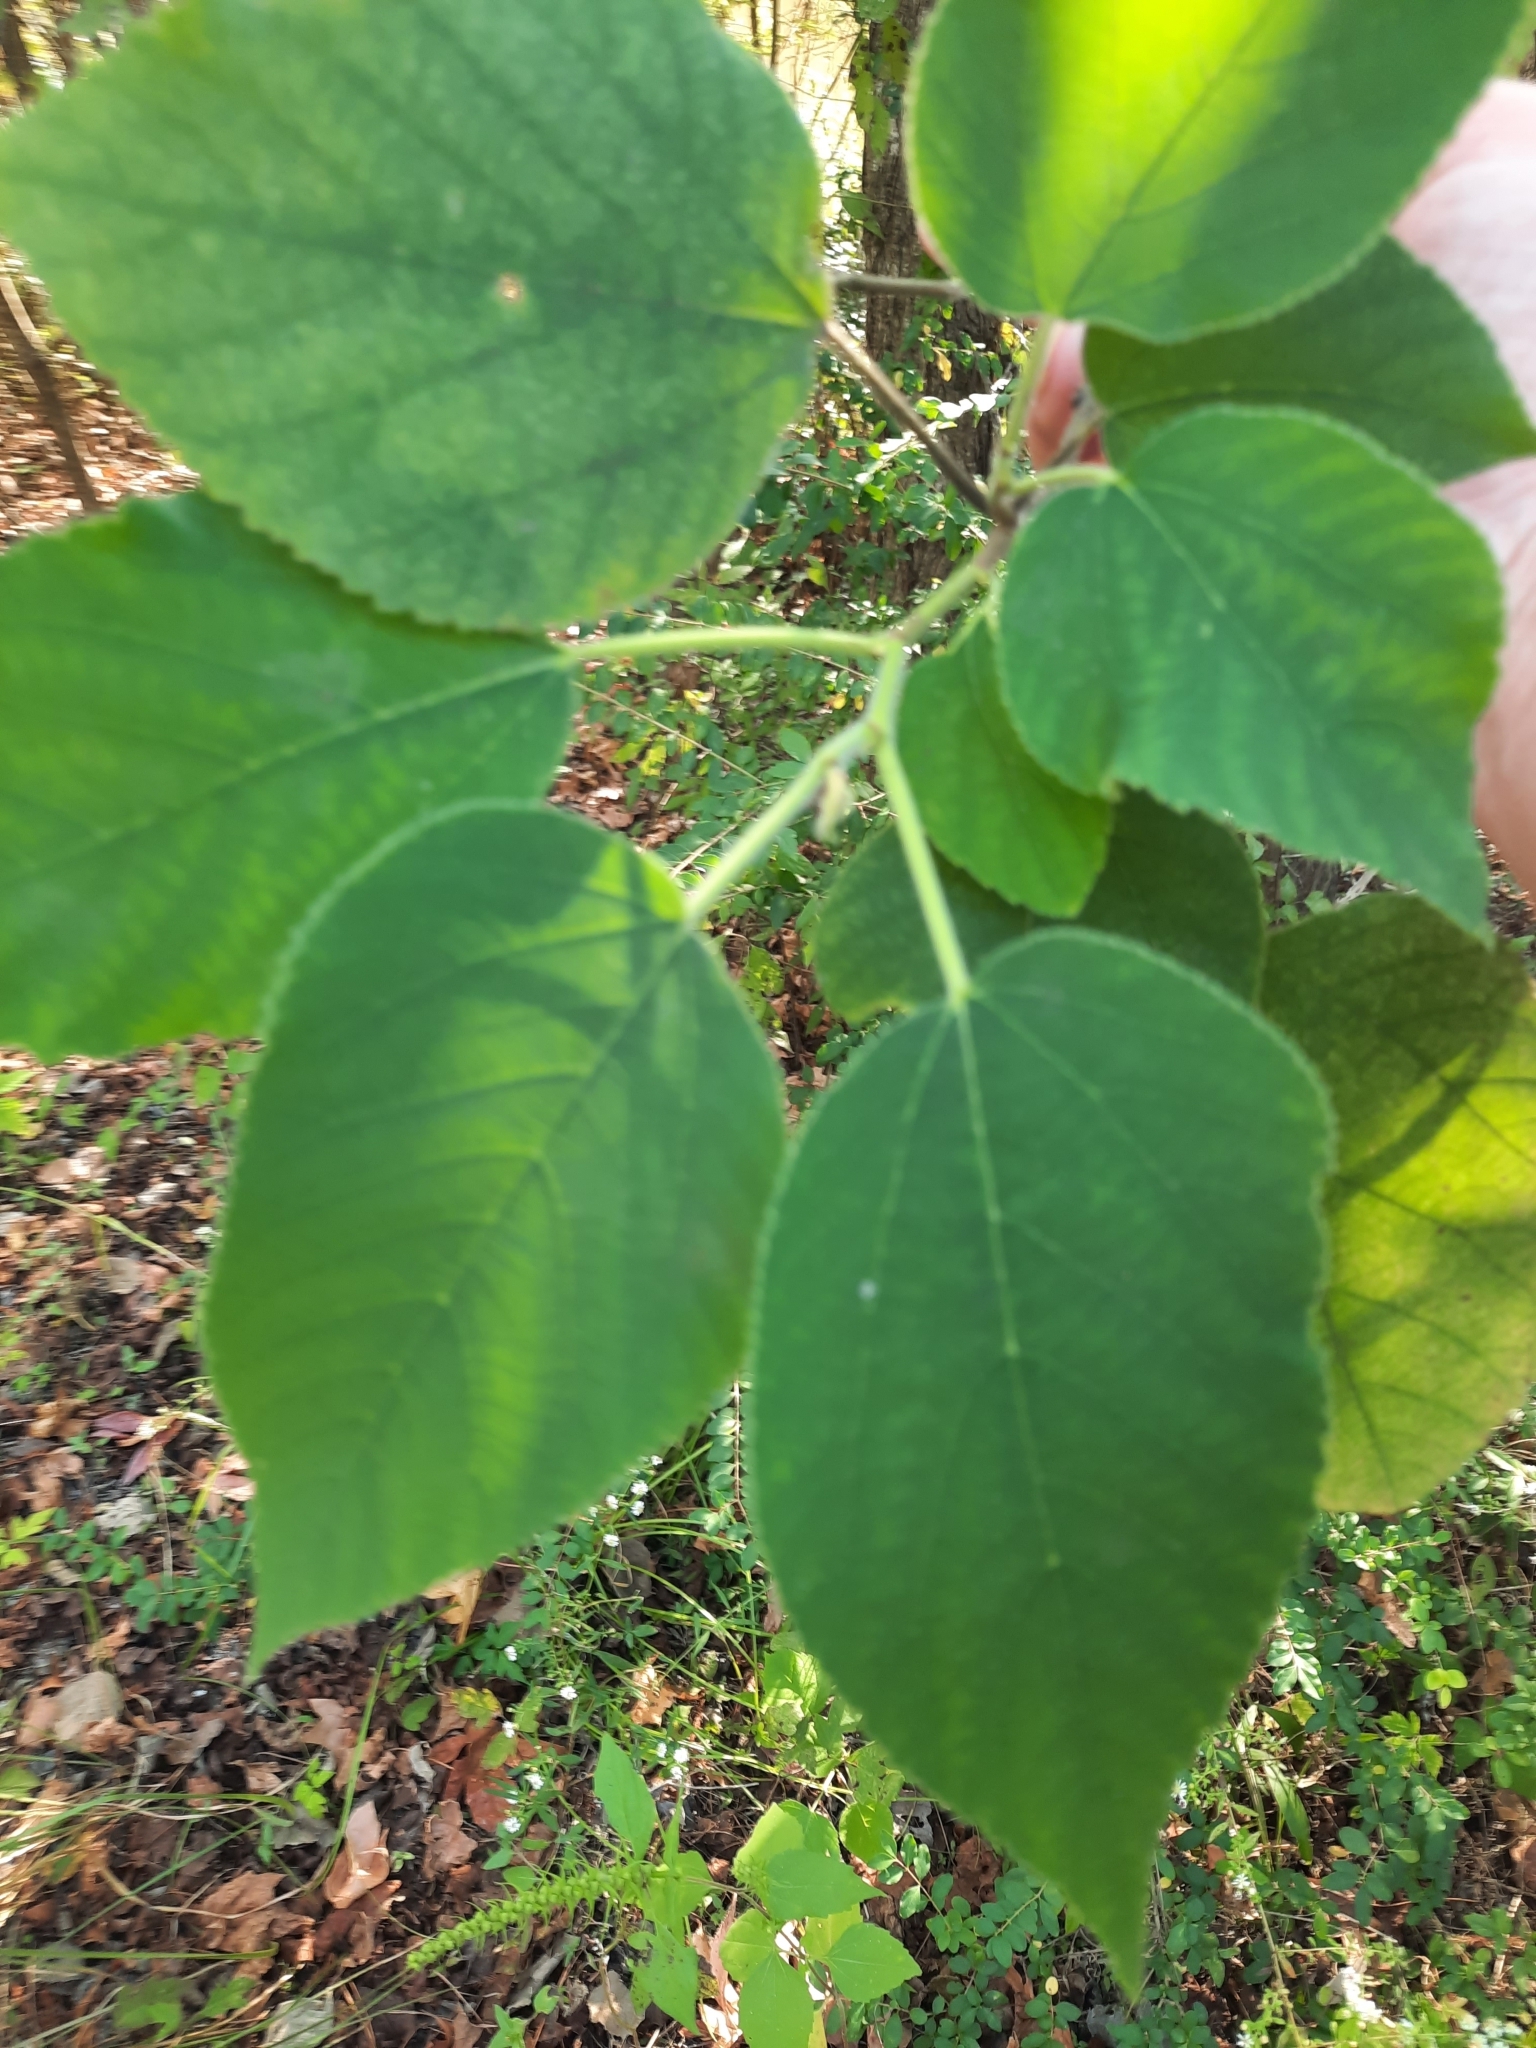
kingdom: Plantae
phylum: Tracheophyta
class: Magnoliopsida
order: Rosales
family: Moraceae
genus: Broussonetia
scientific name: Broussonetia papyrifera
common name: Paper mulberry
